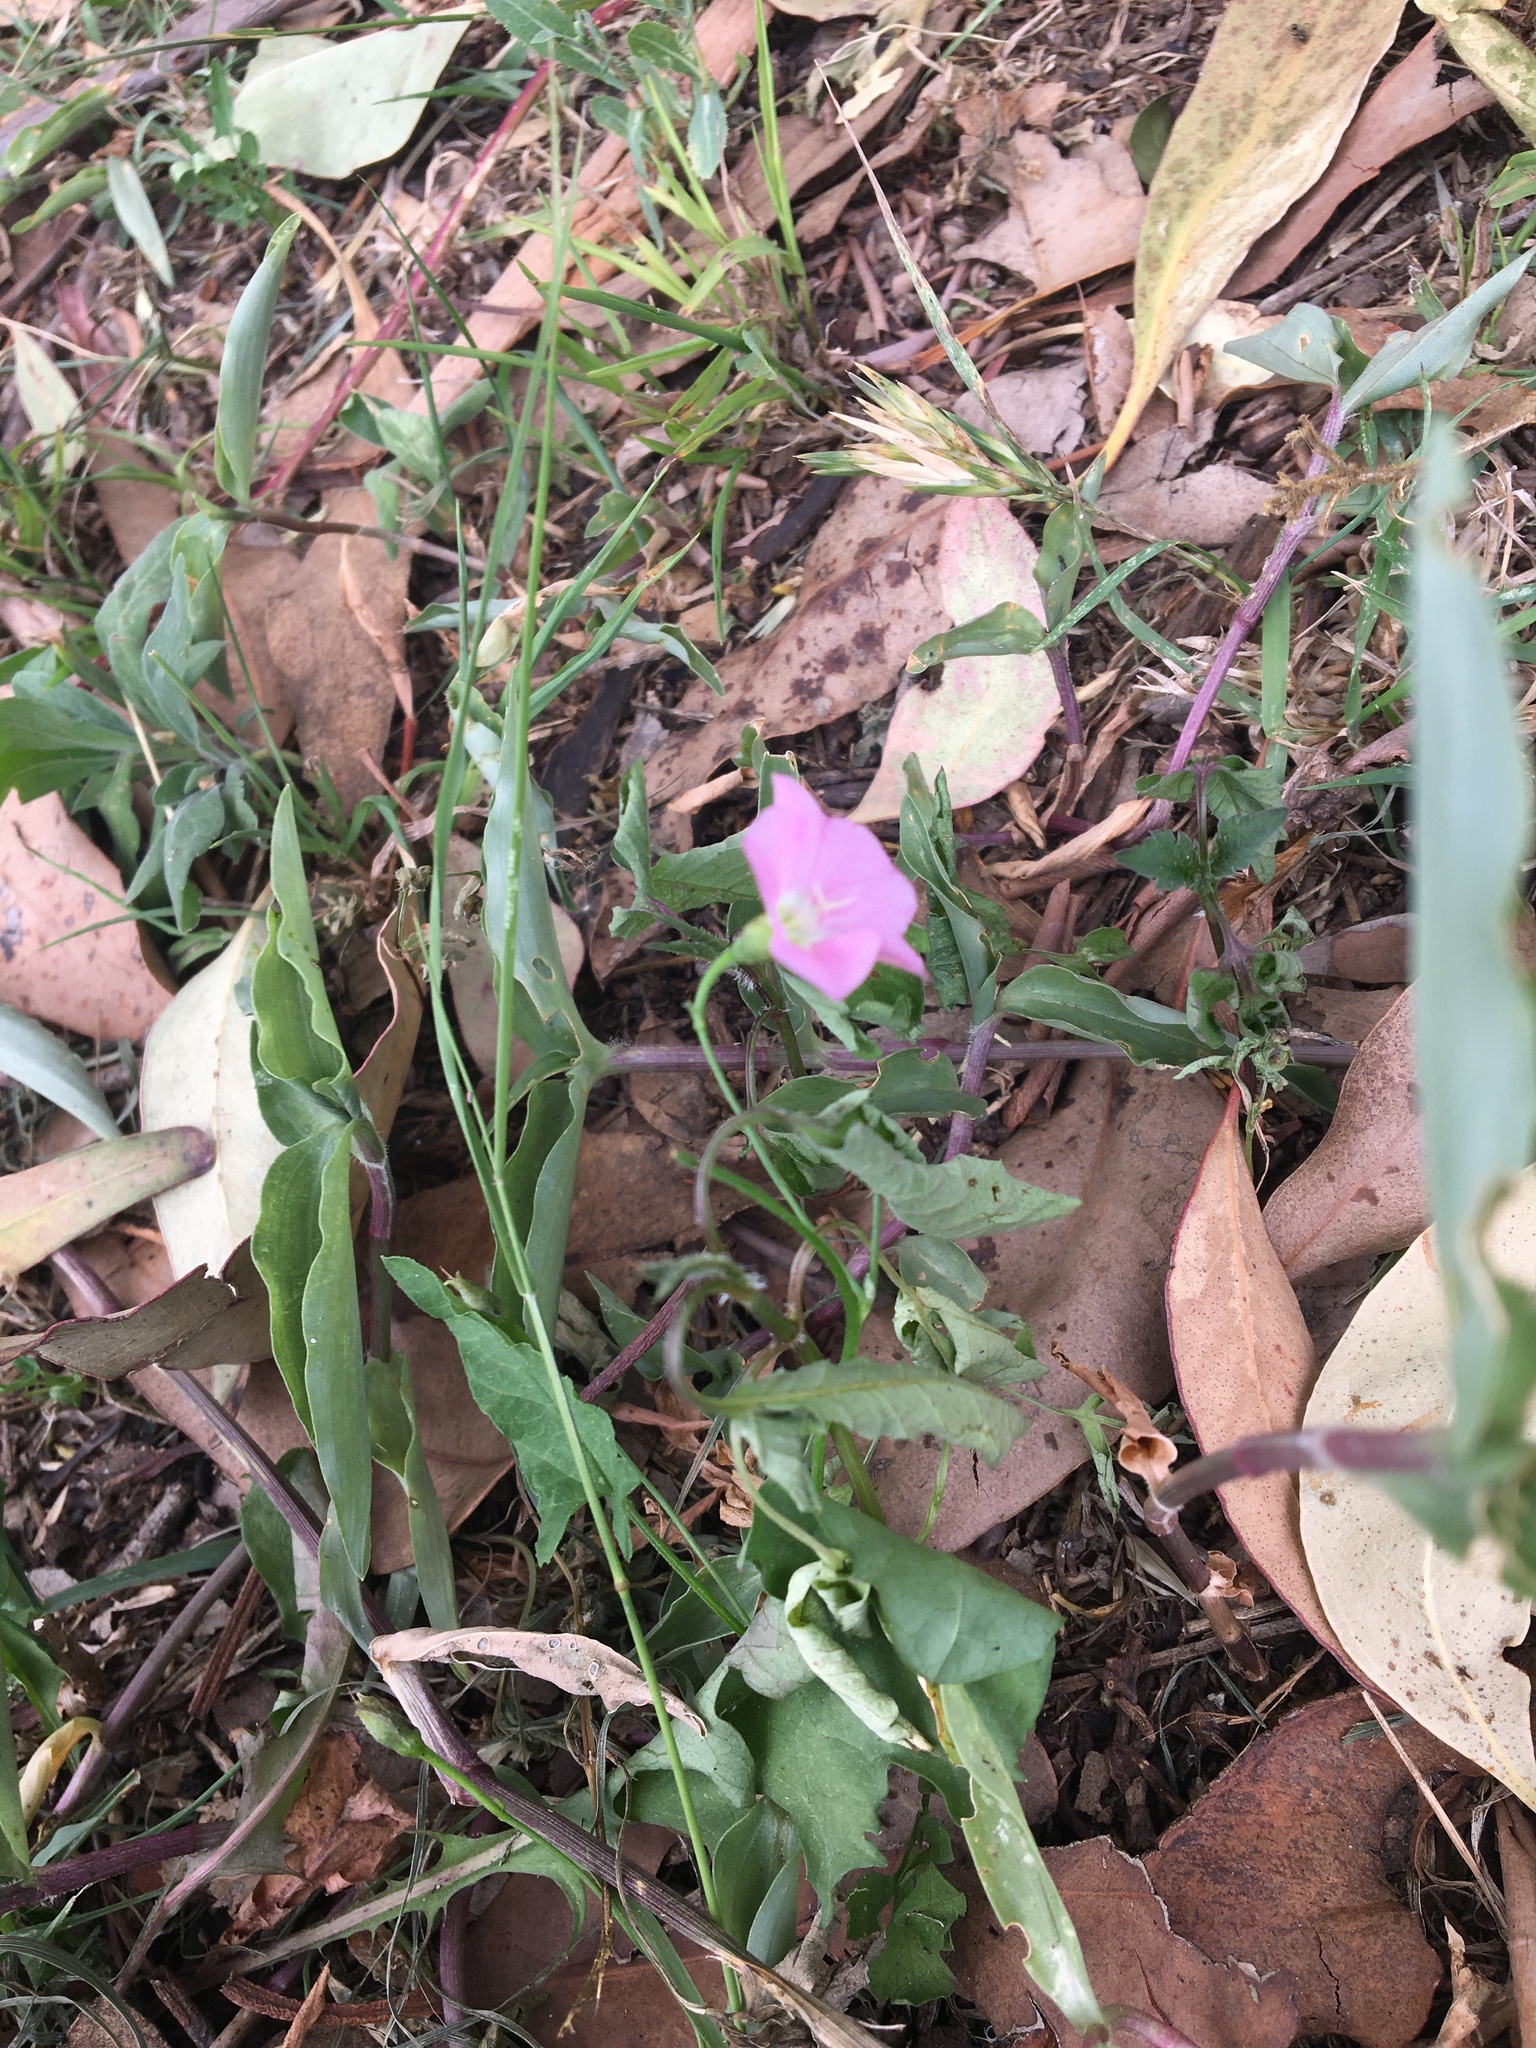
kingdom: Plantae
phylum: Tracheophyta
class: Magnoliopsida
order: Solanales
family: Convolvulaceae
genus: Convolvulus
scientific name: Convolvulus erubescens
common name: Australian bindweed
